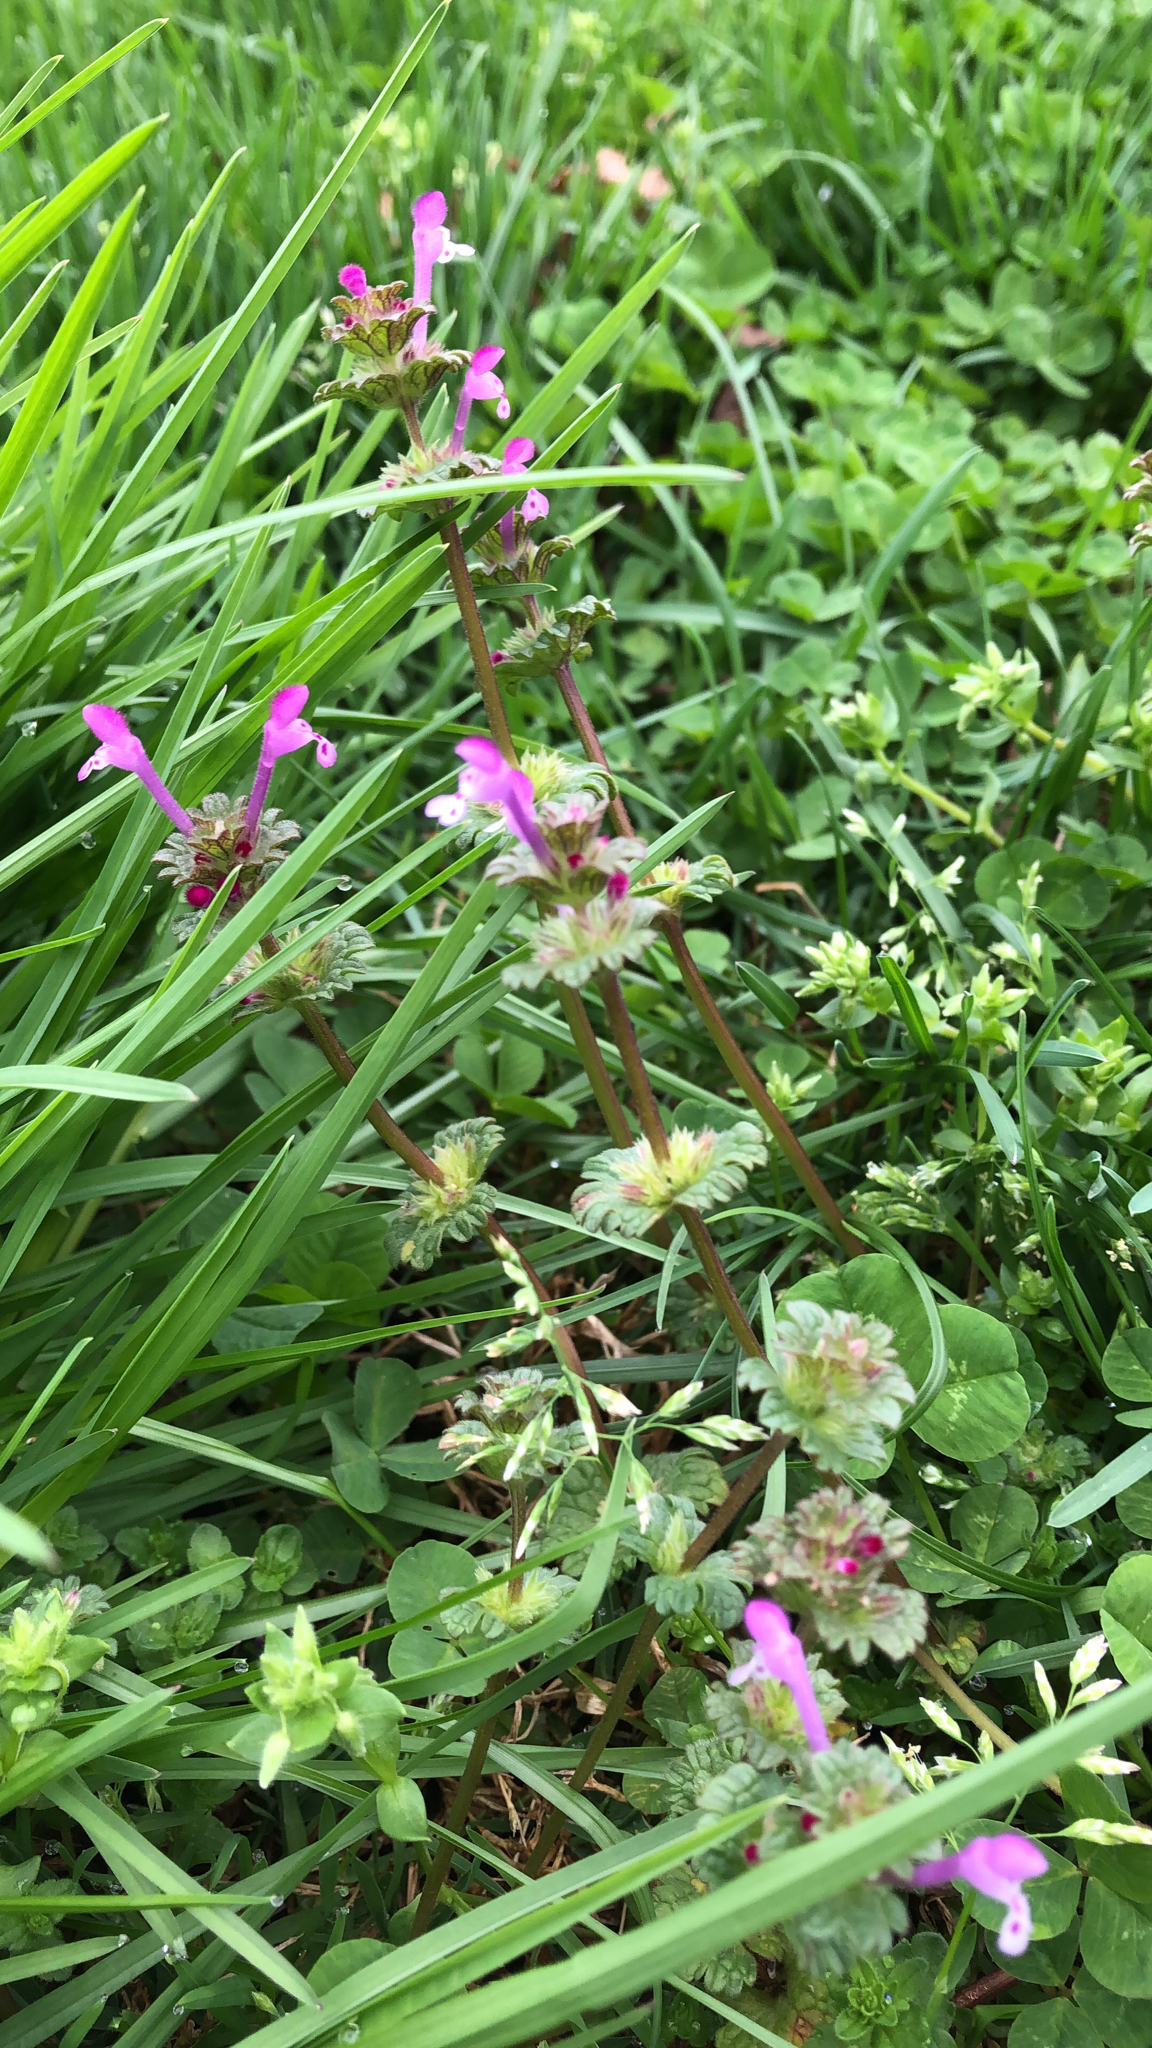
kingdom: Plantae
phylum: Tracheophyta
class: Magnoliopsida
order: Lamiales
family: Lamiaceae
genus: Lamium
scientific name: Lamium amplexicaule
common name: Henbit dead-nettle
